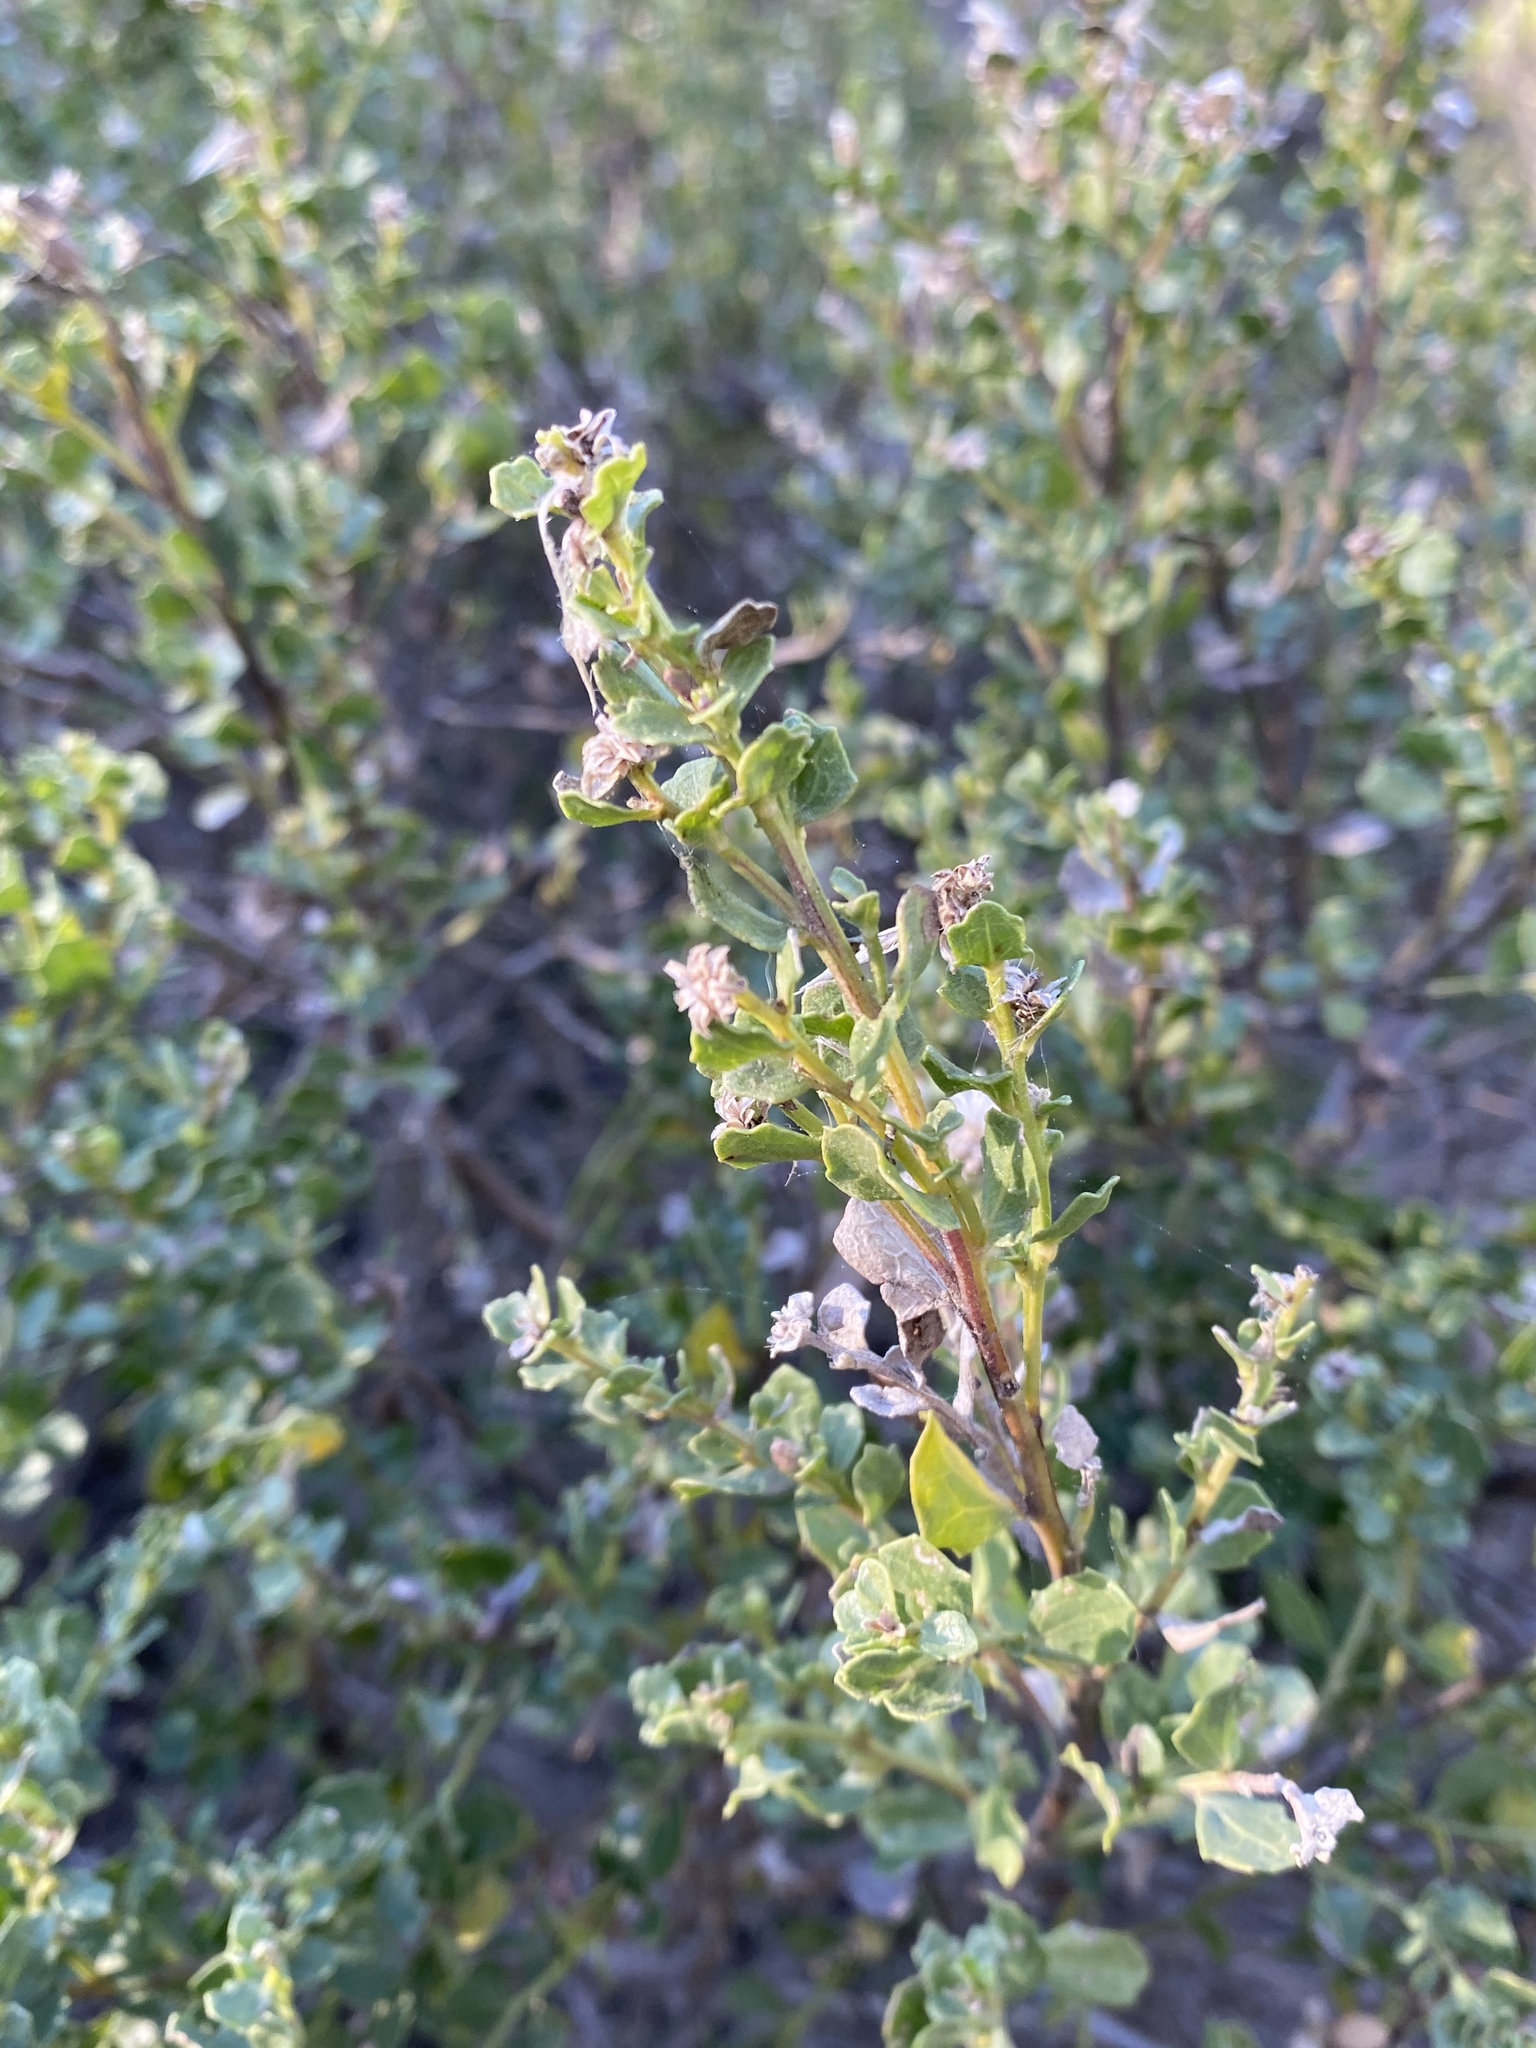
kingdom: Plantae
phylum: Tracheophyta
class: Magnoliopsida
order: Asterales
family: Asteraceae
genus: Baccharis
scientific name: Baccharis pilularis
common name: Coyotebrush
